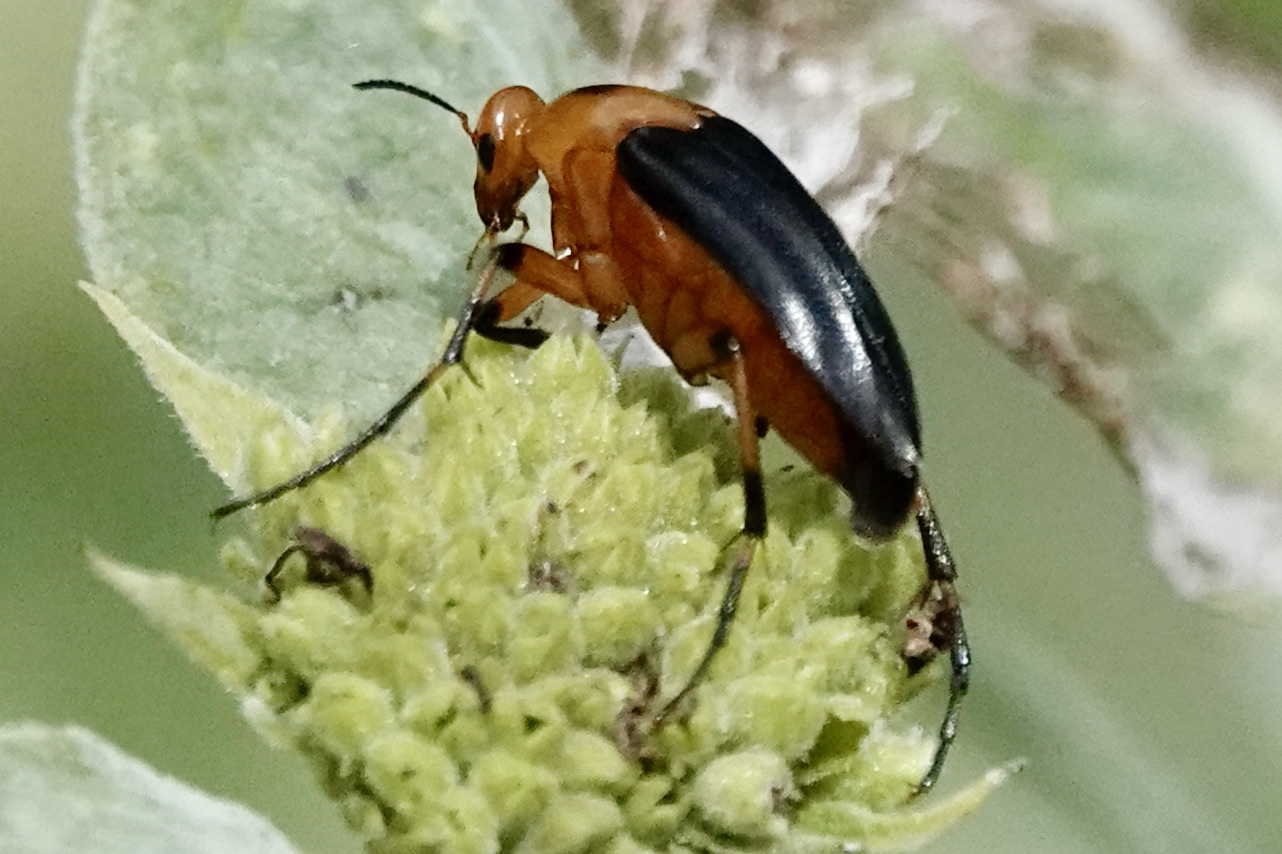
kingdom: Animalia
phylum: Arthropoda
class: Insecta
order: Coleoptera
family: Ripiphoridae
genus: Macrosiagon
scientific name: Macrosiagon limbatum
